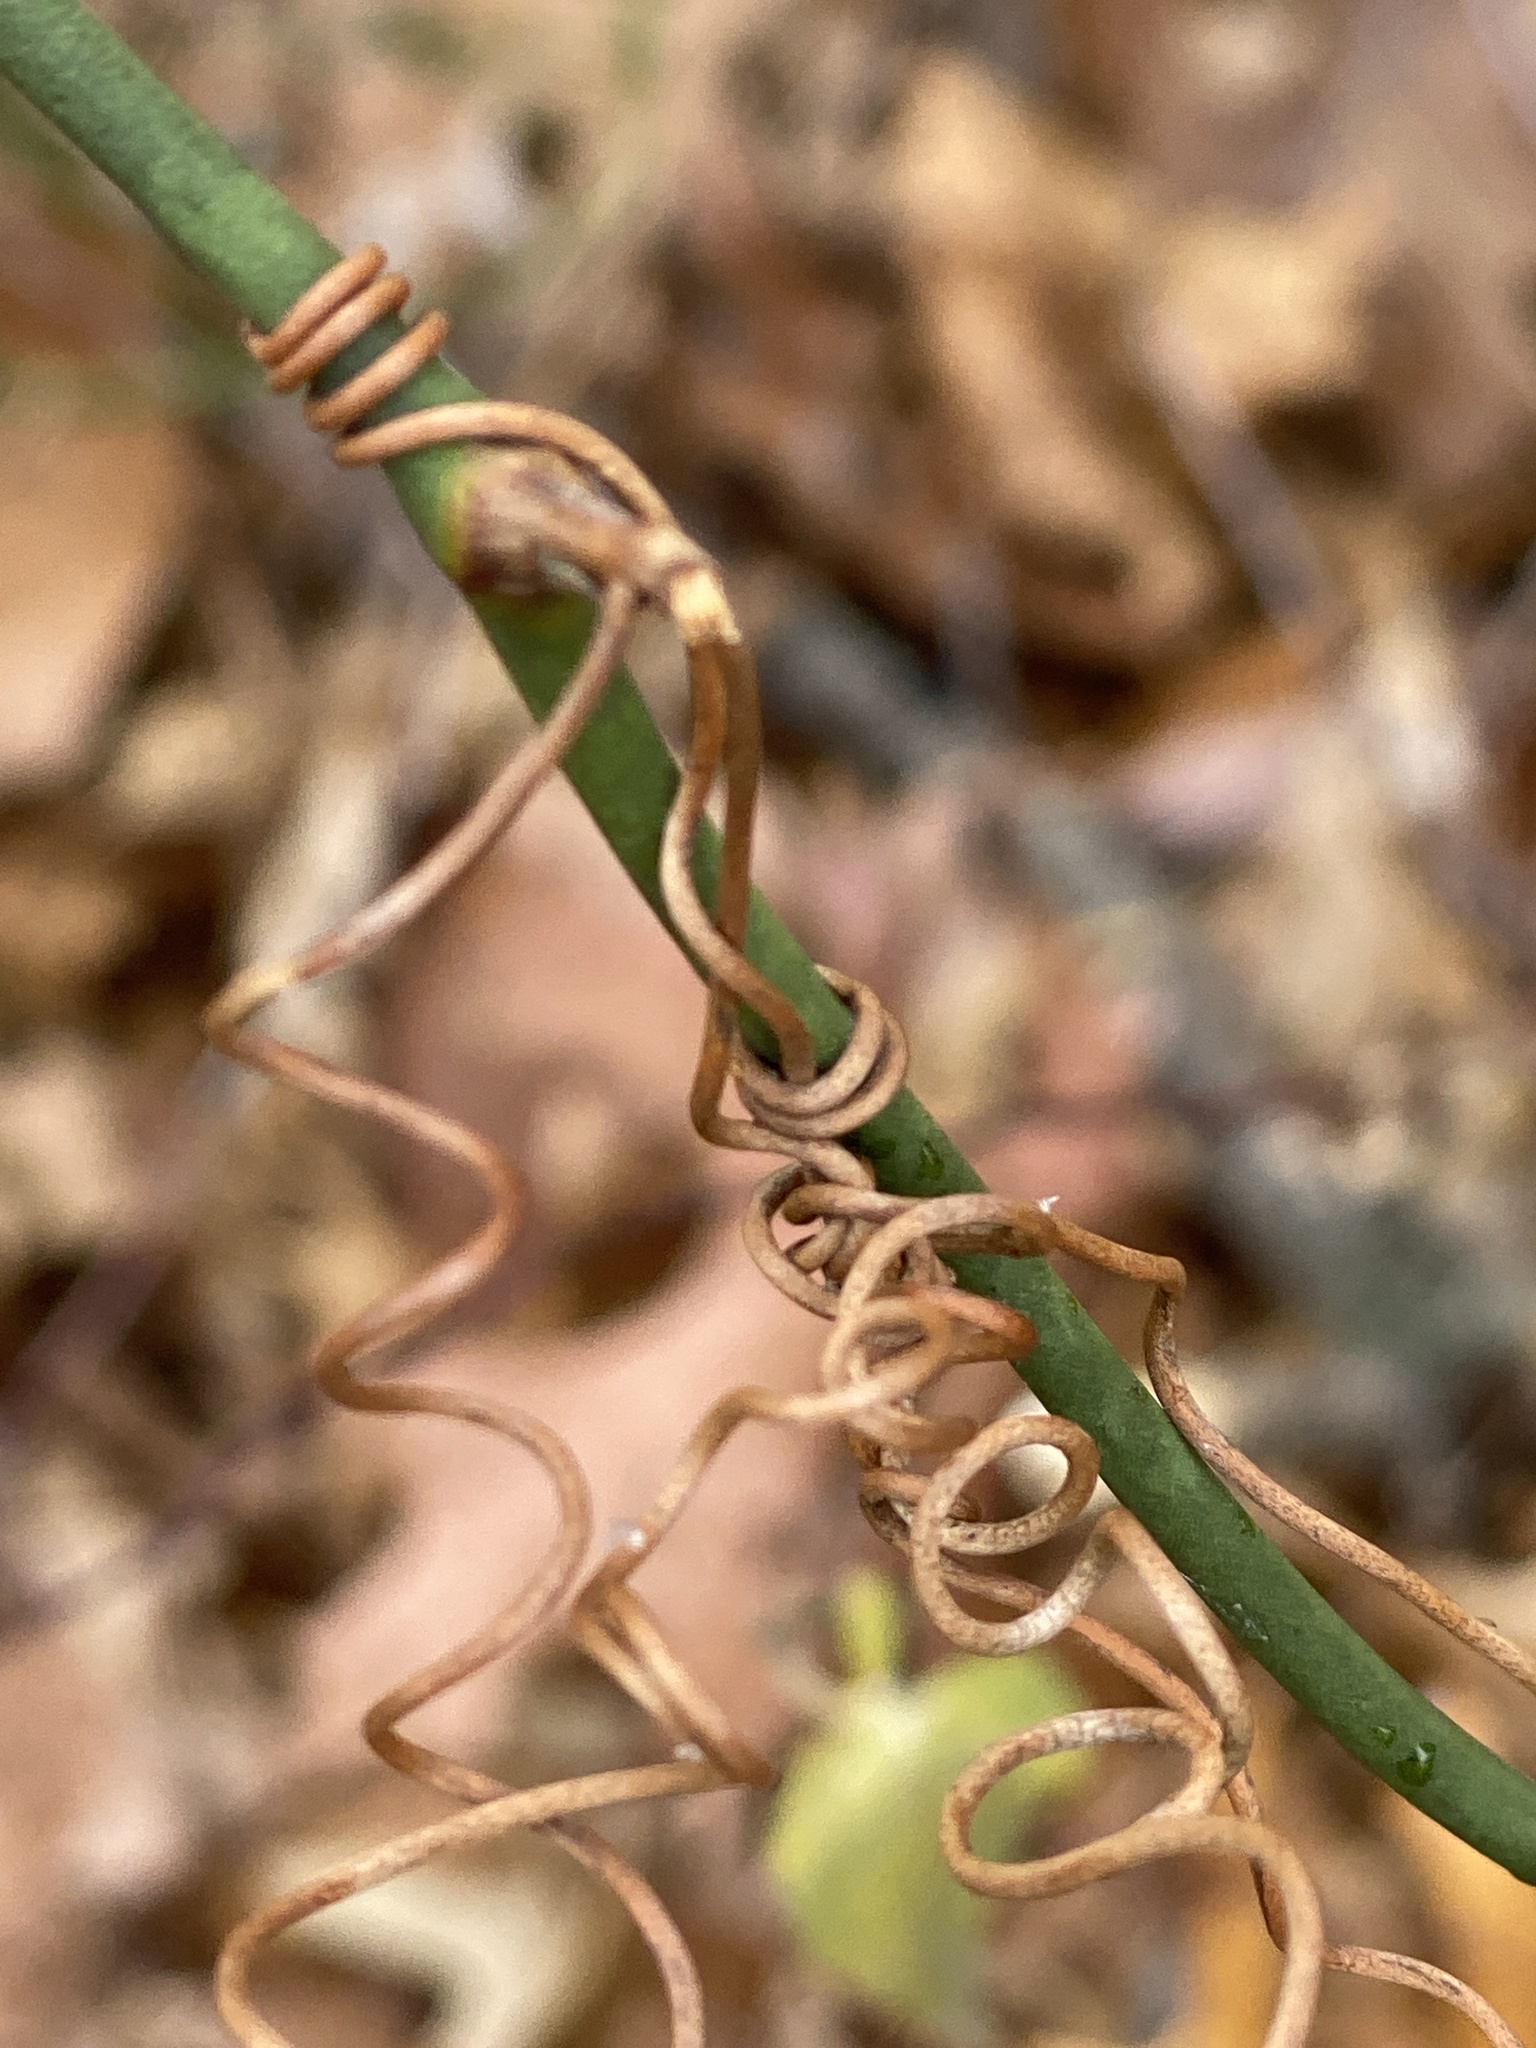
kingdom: Plantae
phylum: Tracheophyta
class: Liliopsida
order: Liliales
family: Smilacaceae
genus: Smilax
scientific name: Smilax rotundifolia
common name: Bullbriar
